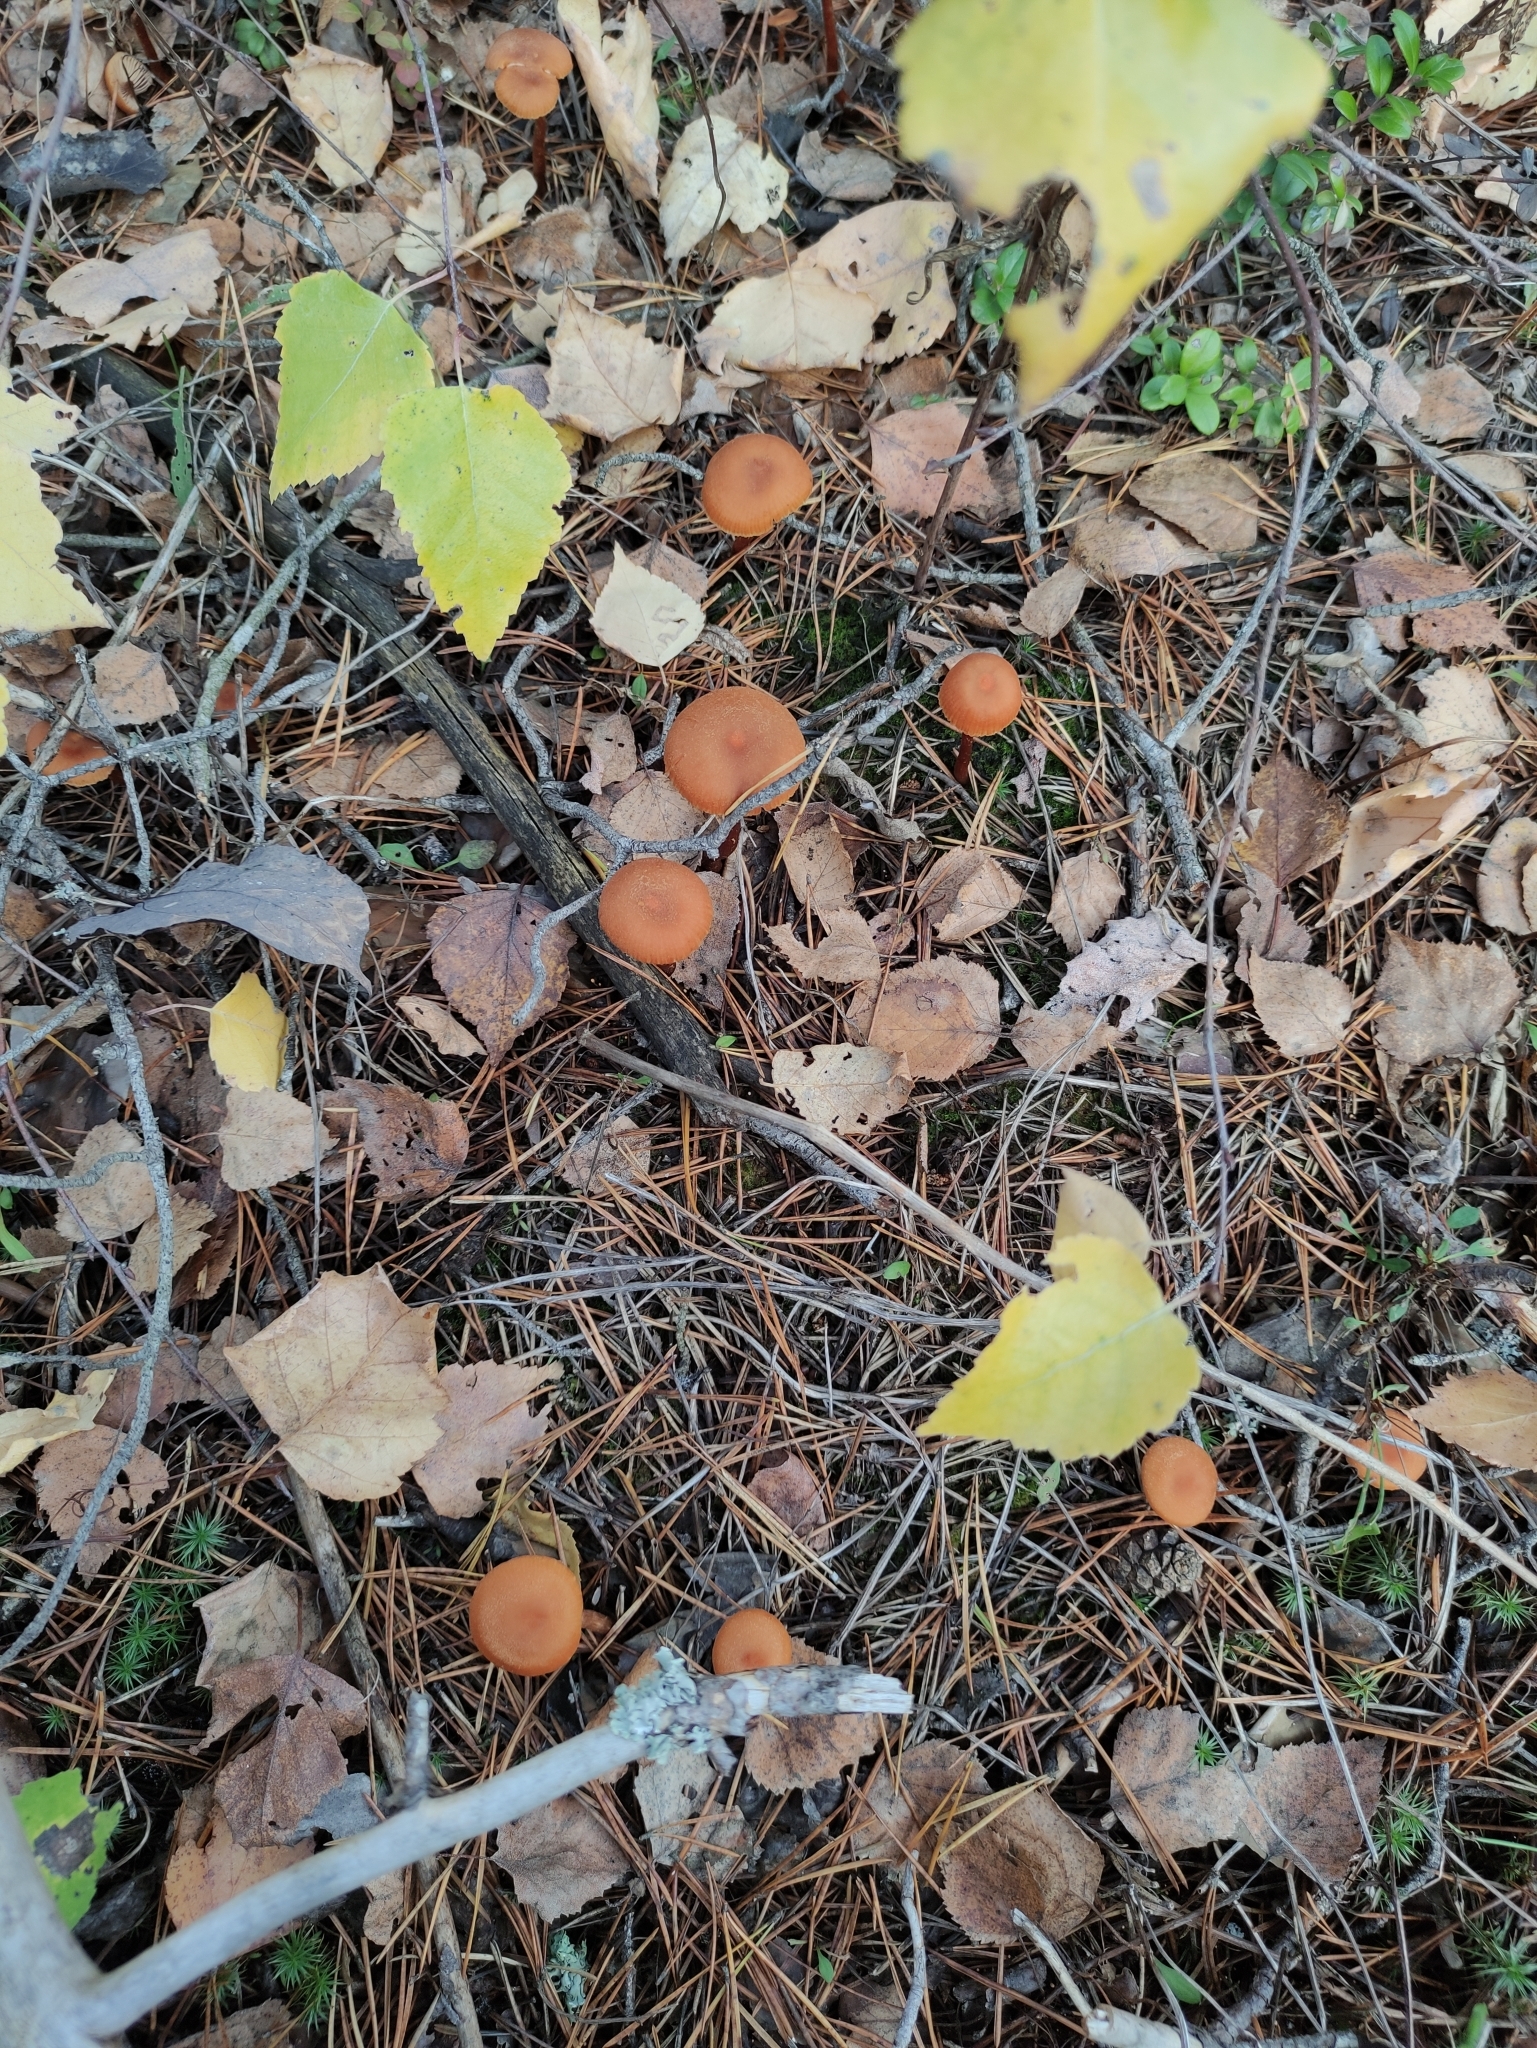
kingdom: Fungi
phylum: Basidiomycota
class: Agaricomycetes
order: Agaricales
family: Hydnangiaceae
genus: Laccaria
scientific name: Laccaria proxima
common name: Scurfy deceiver
